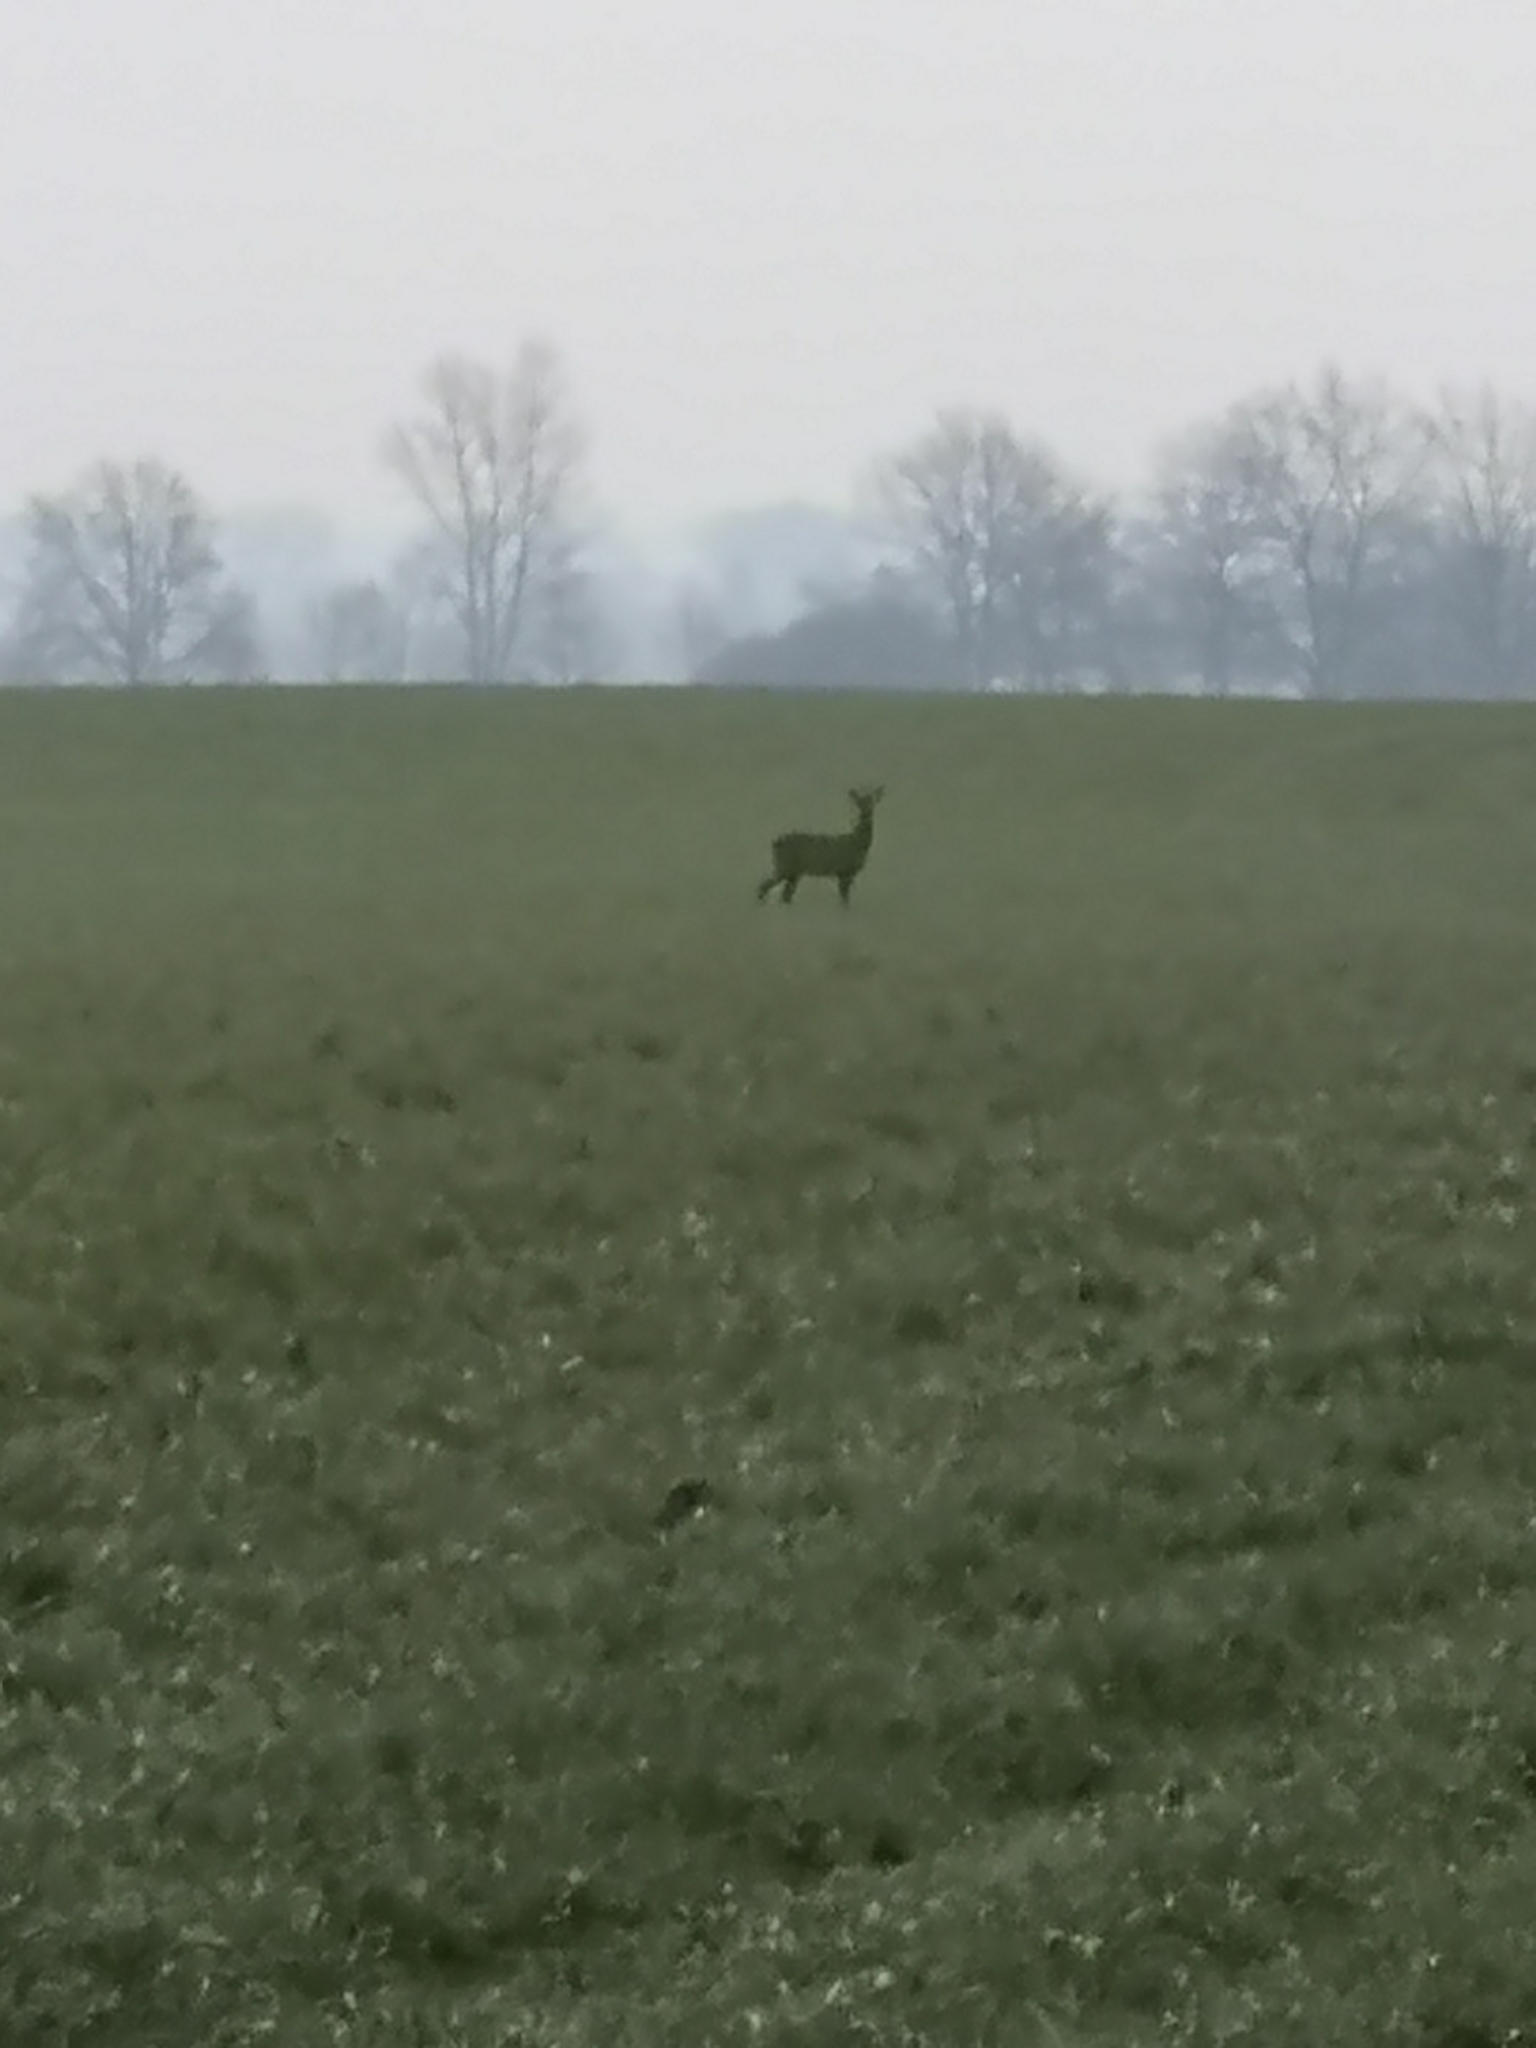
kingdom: Animalia
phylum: Chordata
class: Mammalia
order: Artiodactyla
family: Cervidae
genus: Capreolus
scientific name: Capreolus capreolus
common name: Western roe deer
